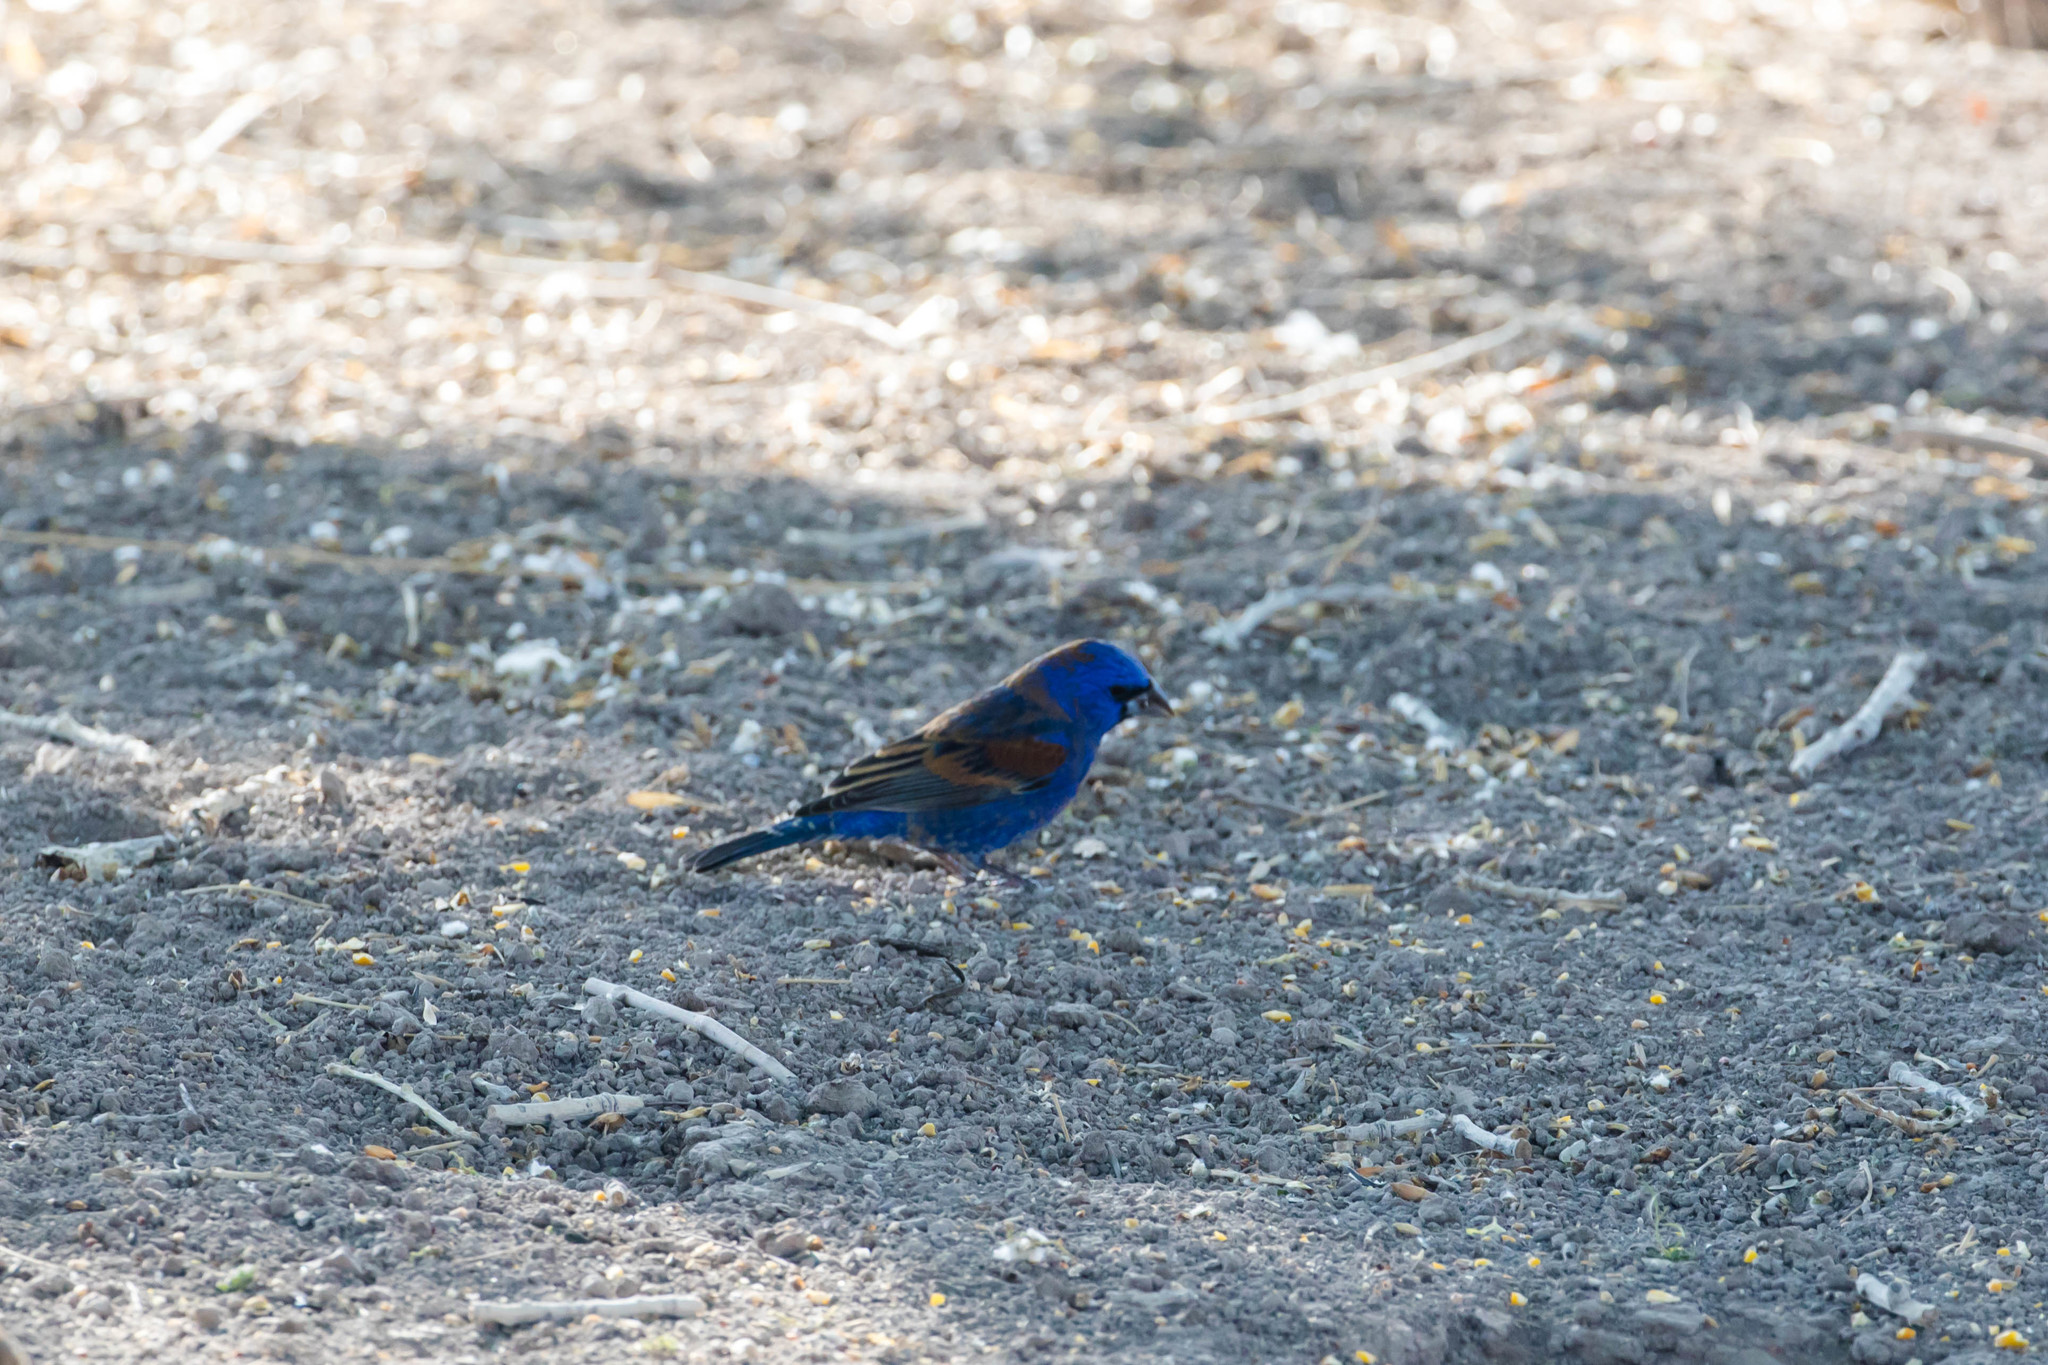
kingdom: Animalia
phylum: Chordata
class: Aves
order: Passeriformes
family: Cardinalidae
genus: Passerina
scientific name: Passerina caerulea
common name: Blue grosbeak
